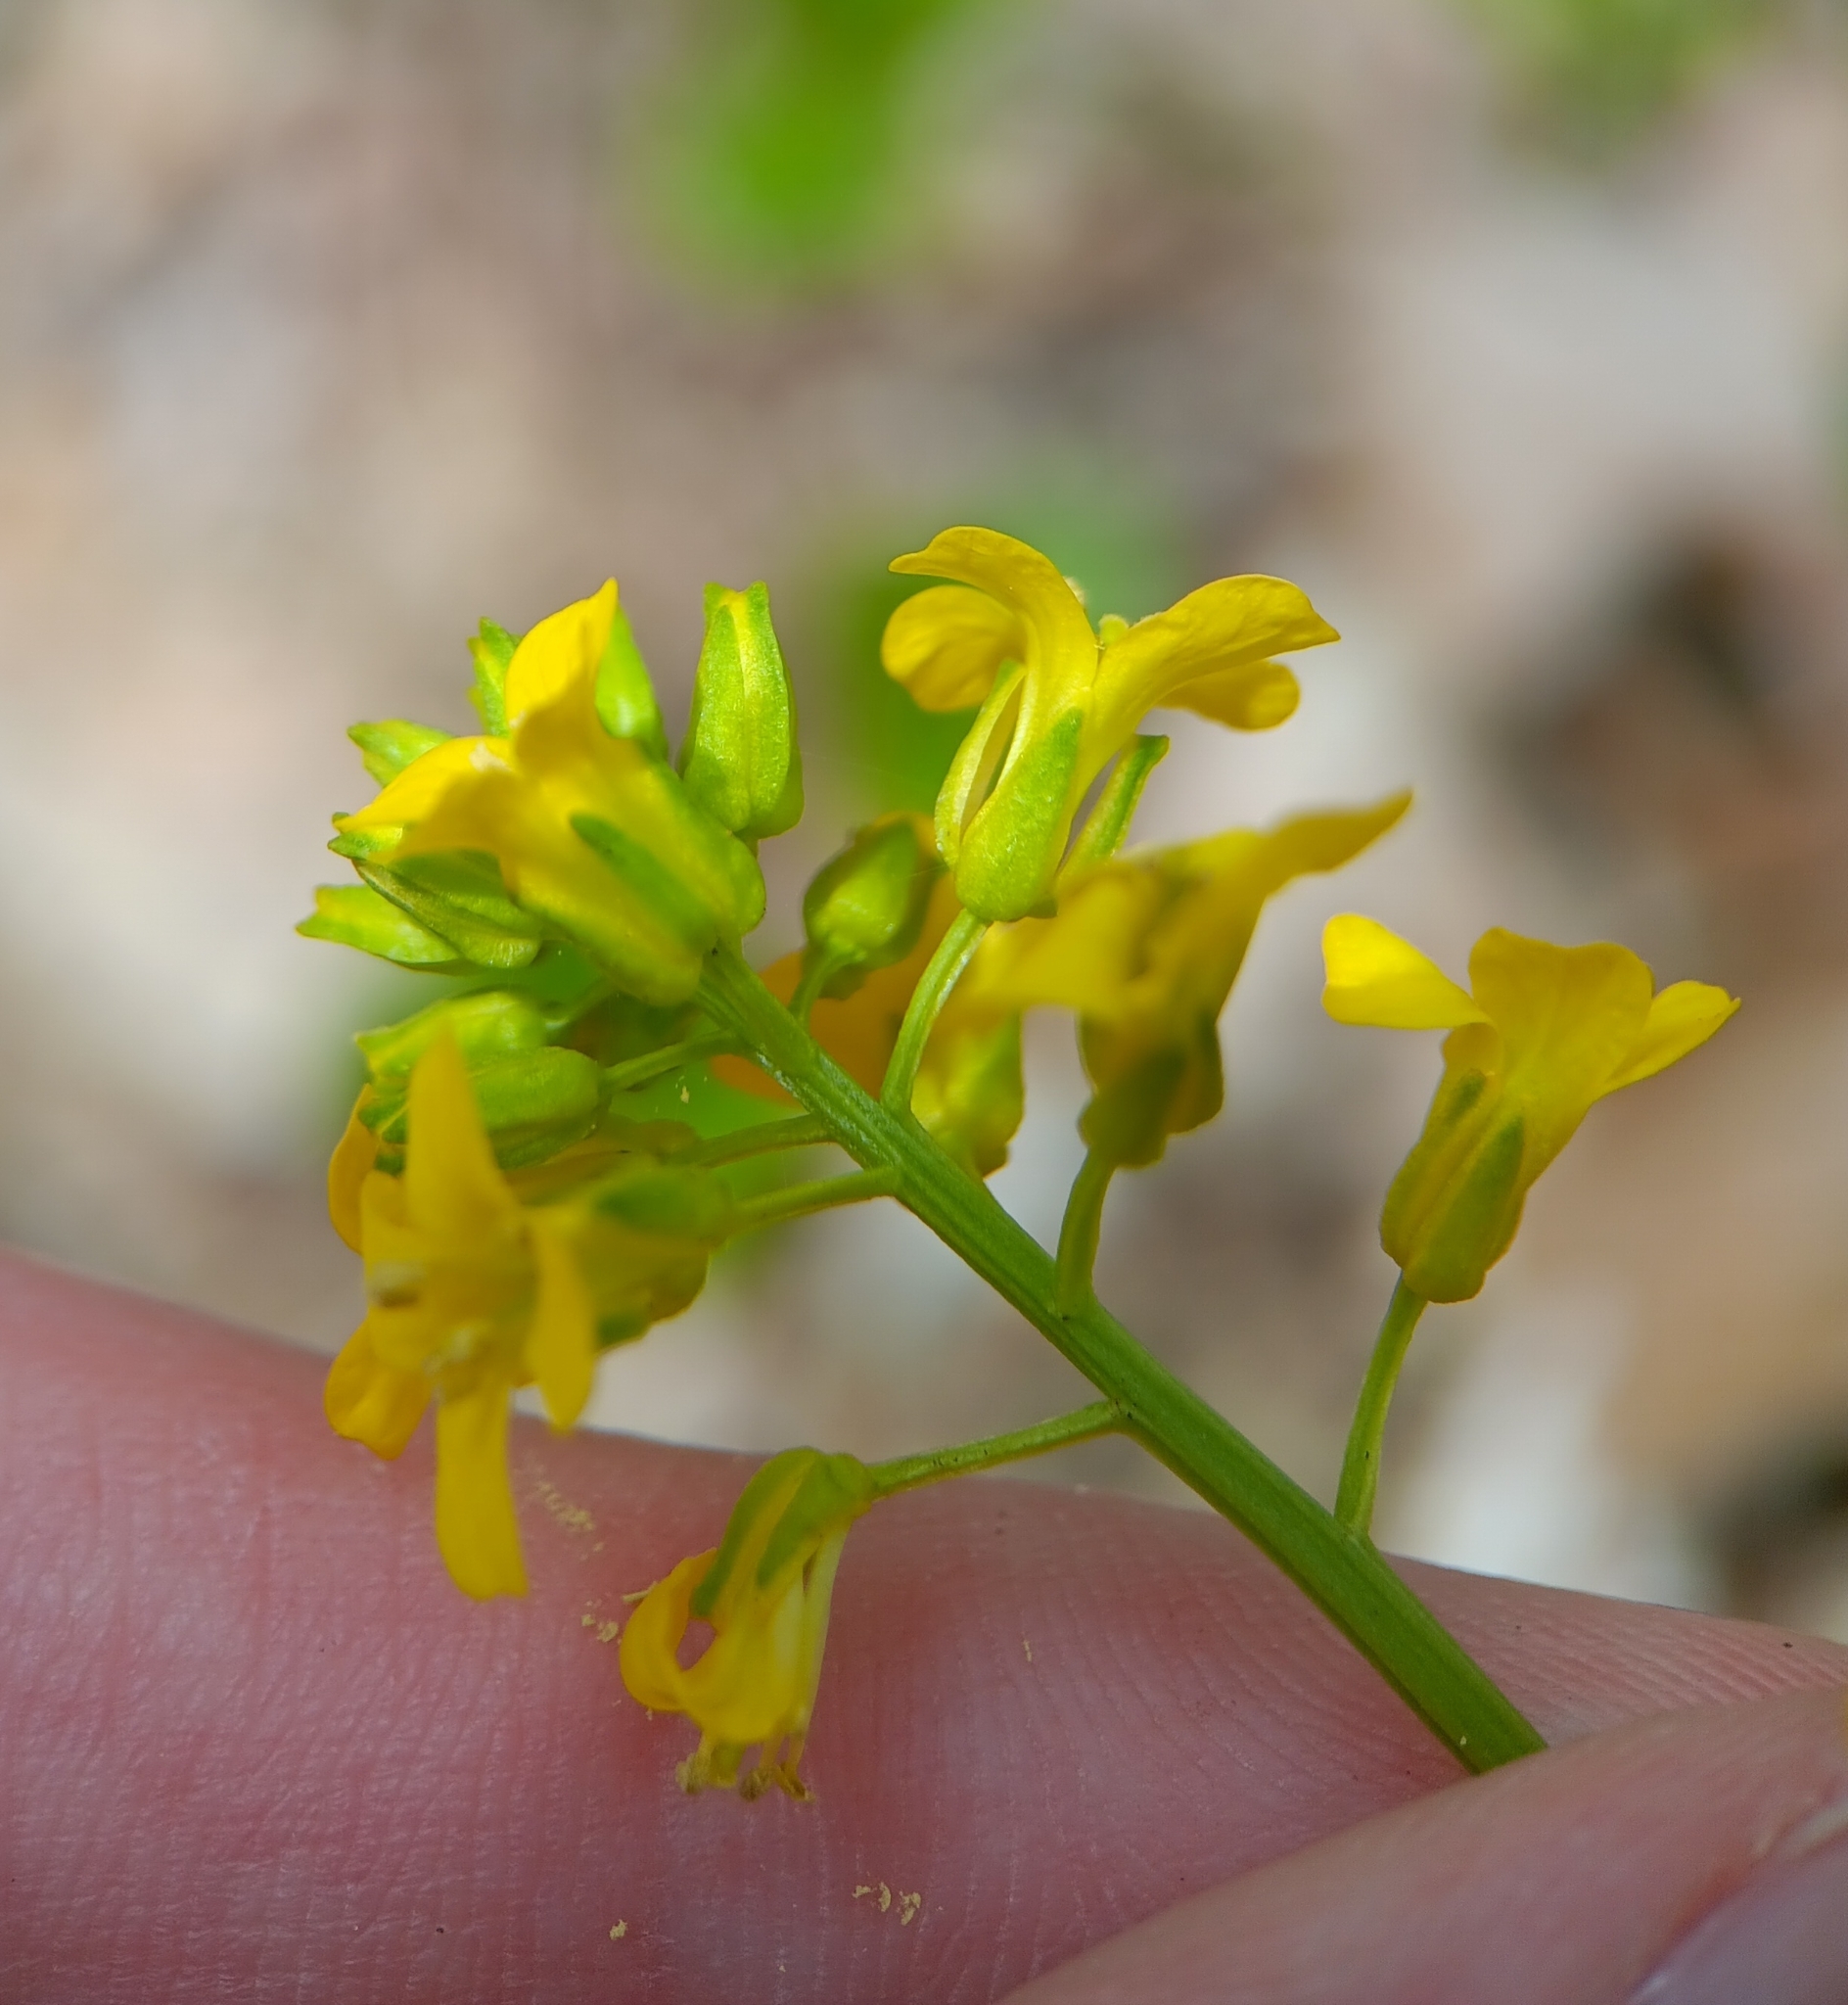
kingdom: Plantae
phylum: Tracheophyta
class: Magnoliopsida
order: Brassicales
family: Brassicaceae
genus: Barbarea
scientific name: Barbarea vulgaris
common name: Cressy-greens
